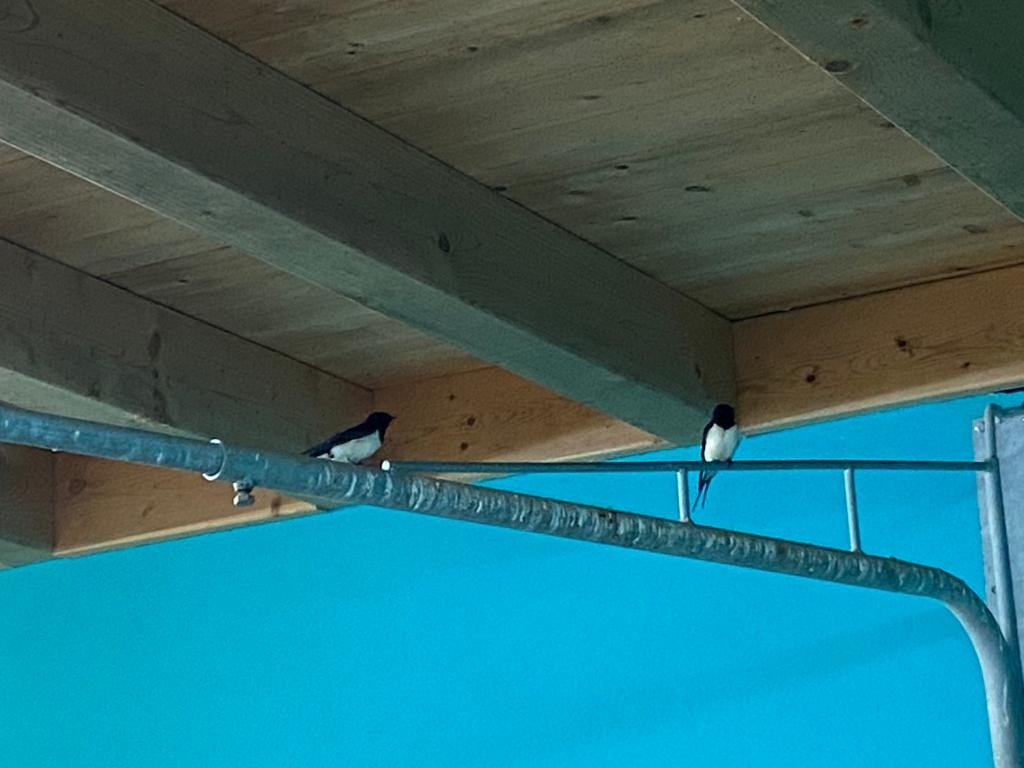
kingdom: Animalia
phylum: Chordata
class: Aves
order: Passeriformes
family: Hirundinidae
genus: Hirundo
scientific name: Hirundo rustica
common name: Barn swallow
